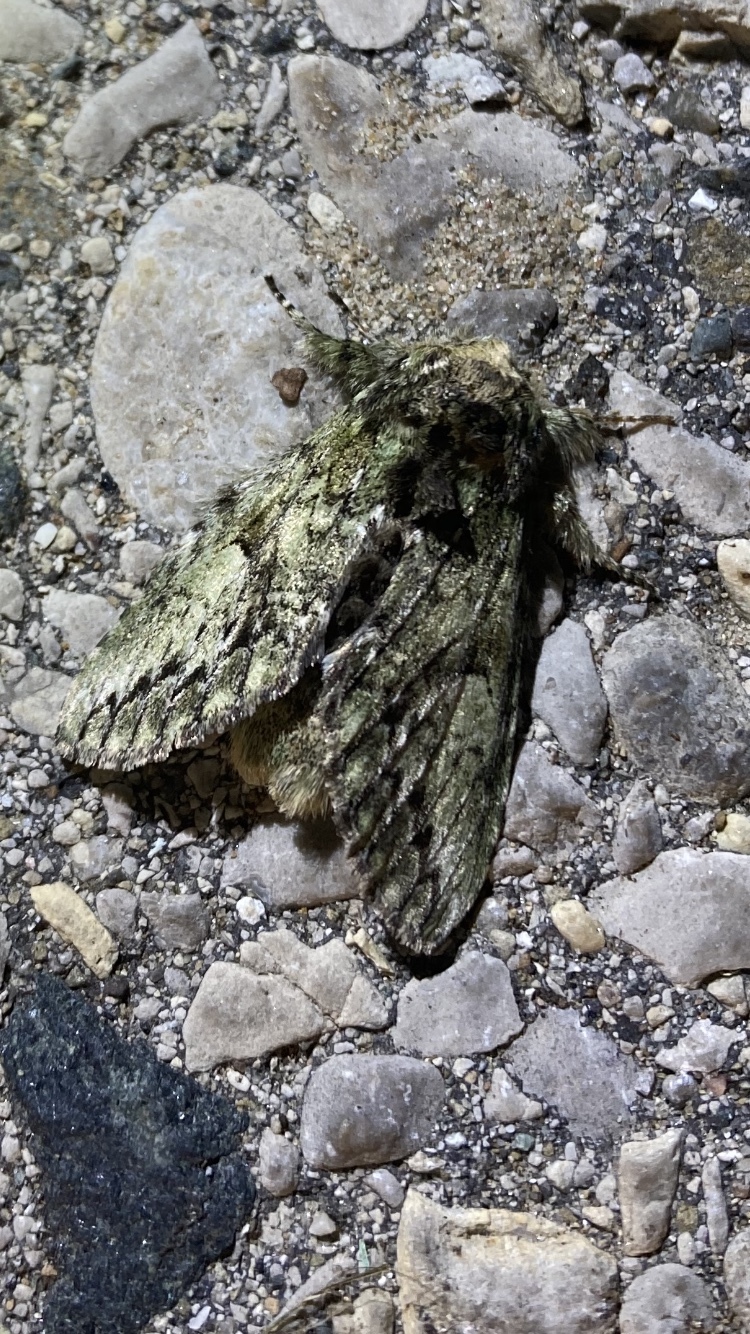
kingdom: Animalia
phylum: Arthropoda
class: Insecta
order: Lepidoptera
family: Notodontidae
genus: Macrurocampa
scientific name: Macrurocampa marthesia
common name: Mottled prominent
